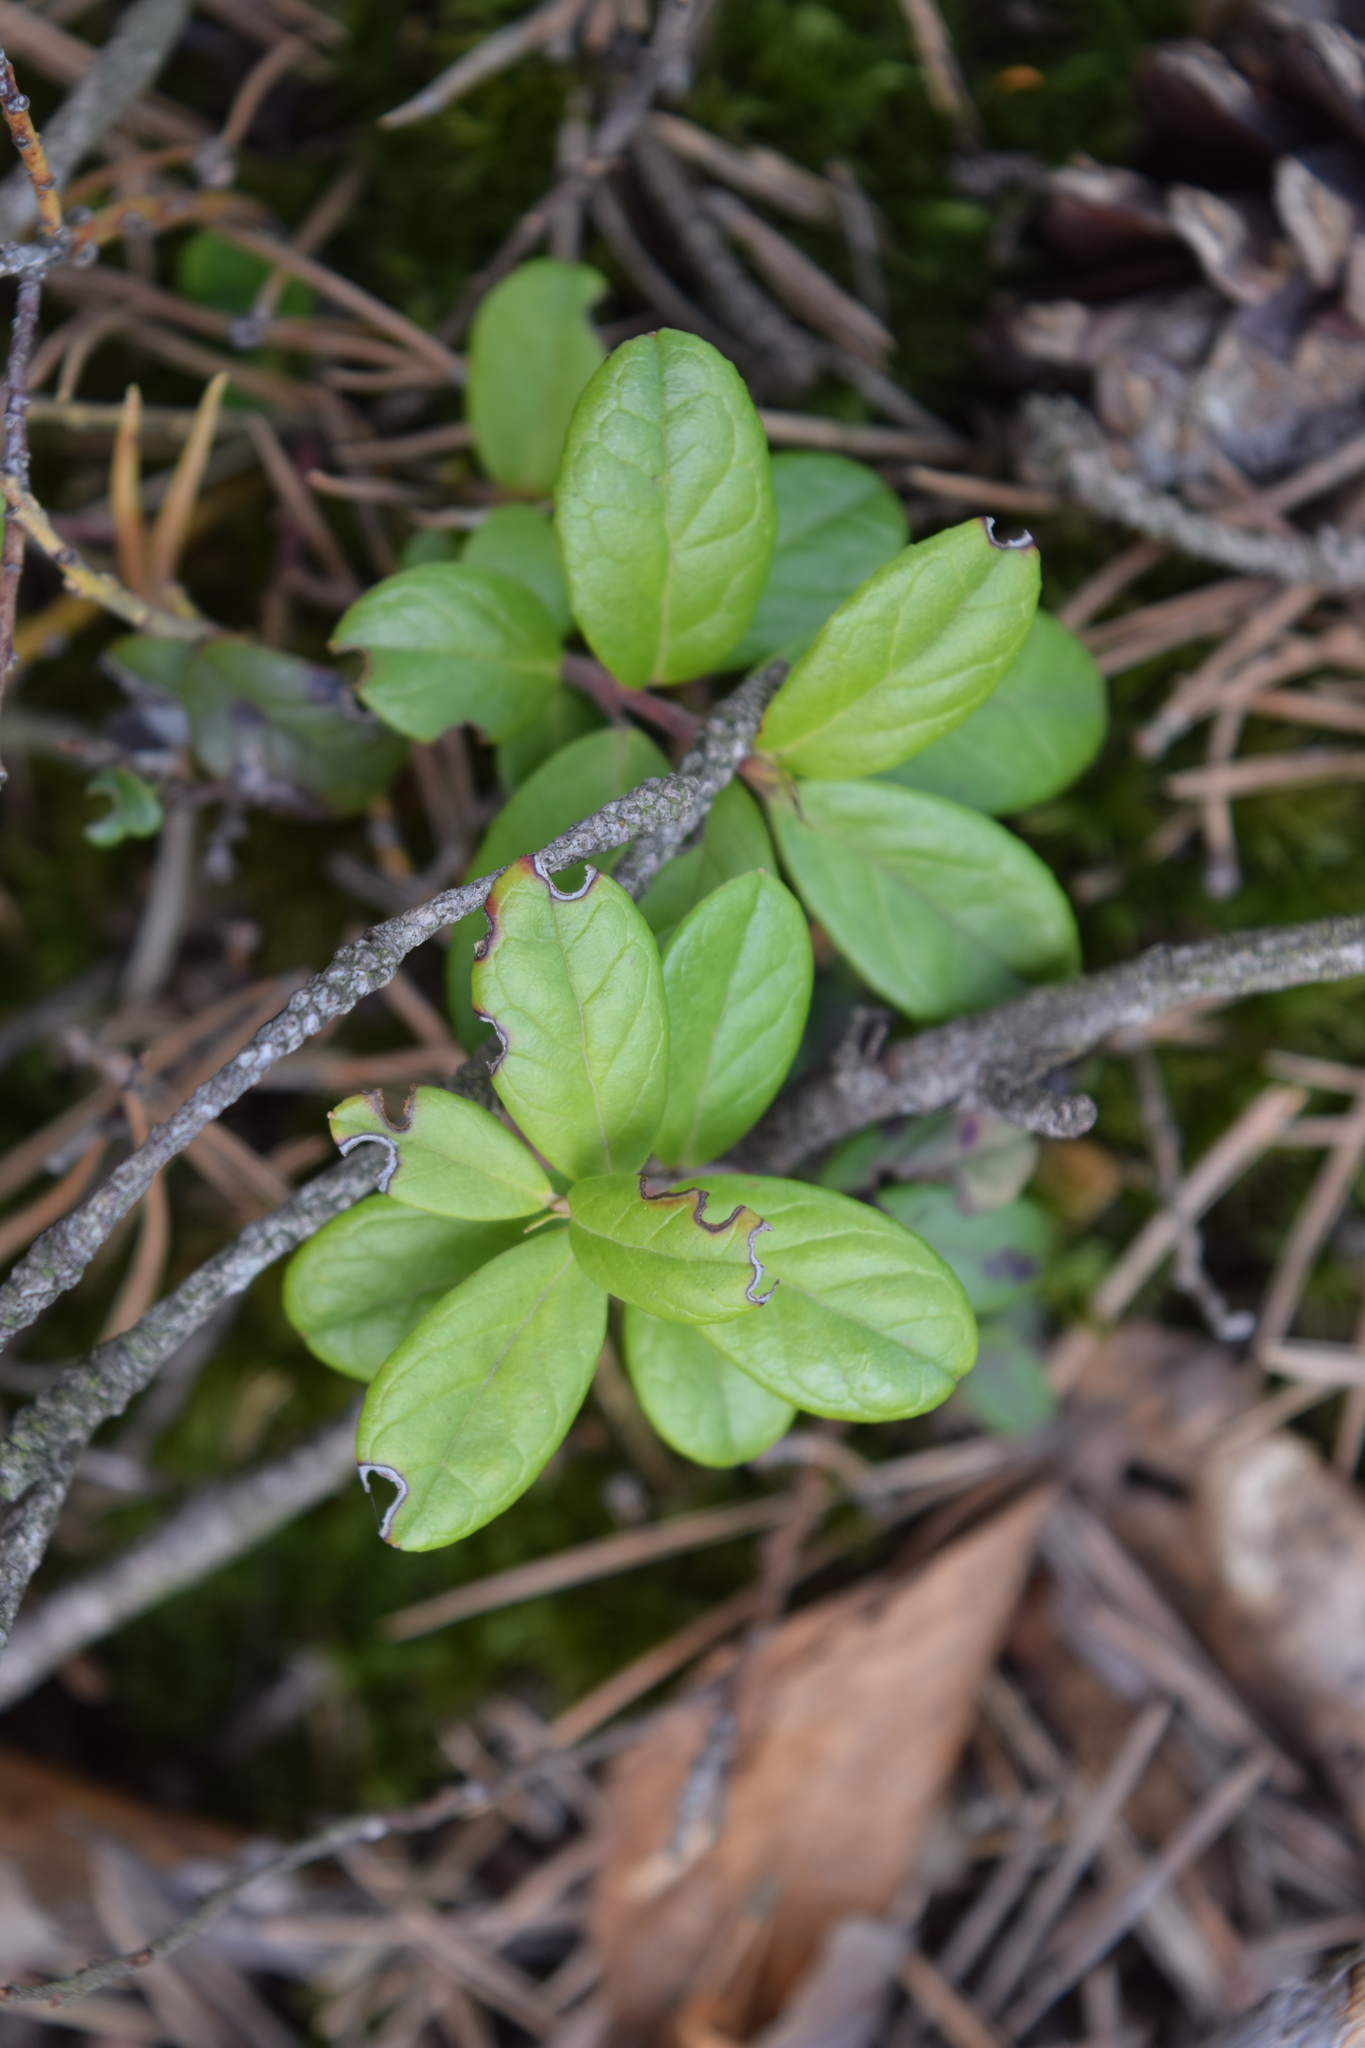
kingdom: Plantae
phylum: Tracheophyta
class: Magnoliopsida
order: Ericales
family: Ericaceae
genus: Vaccinium
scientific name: Vaccinium vitis-idaea
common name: Cowberry
